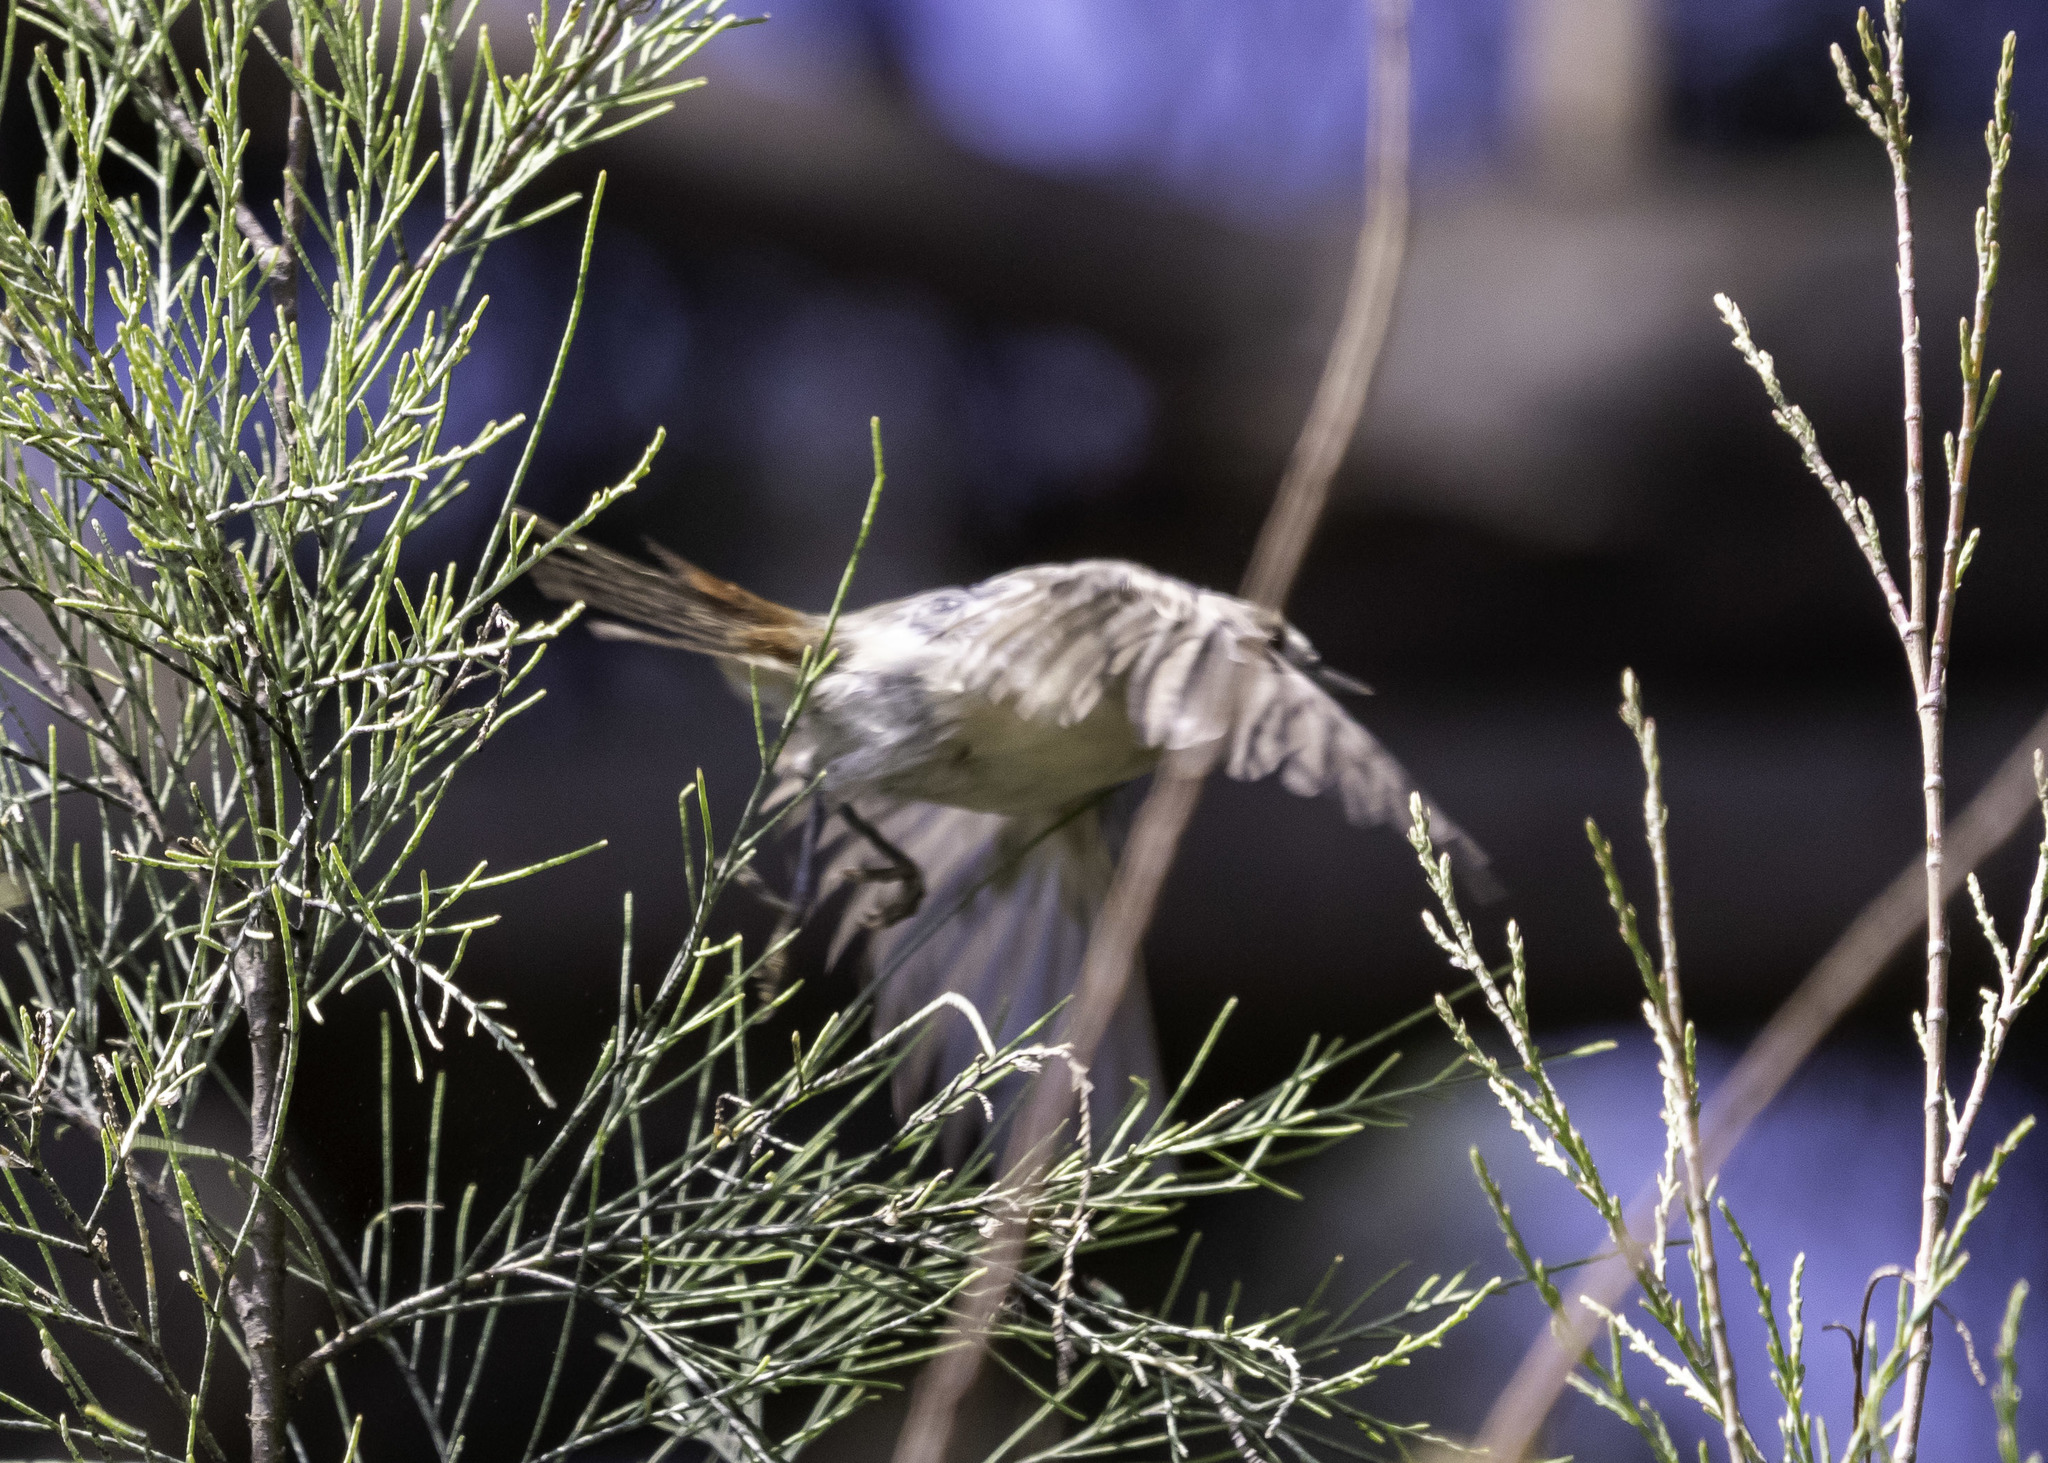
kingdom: Animalia
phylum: Chordata
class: Aves
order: Passeriformes
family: Parulidae
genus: Leiothlypis
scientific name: Leiothlypis luciae
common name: Lucy's warbler
